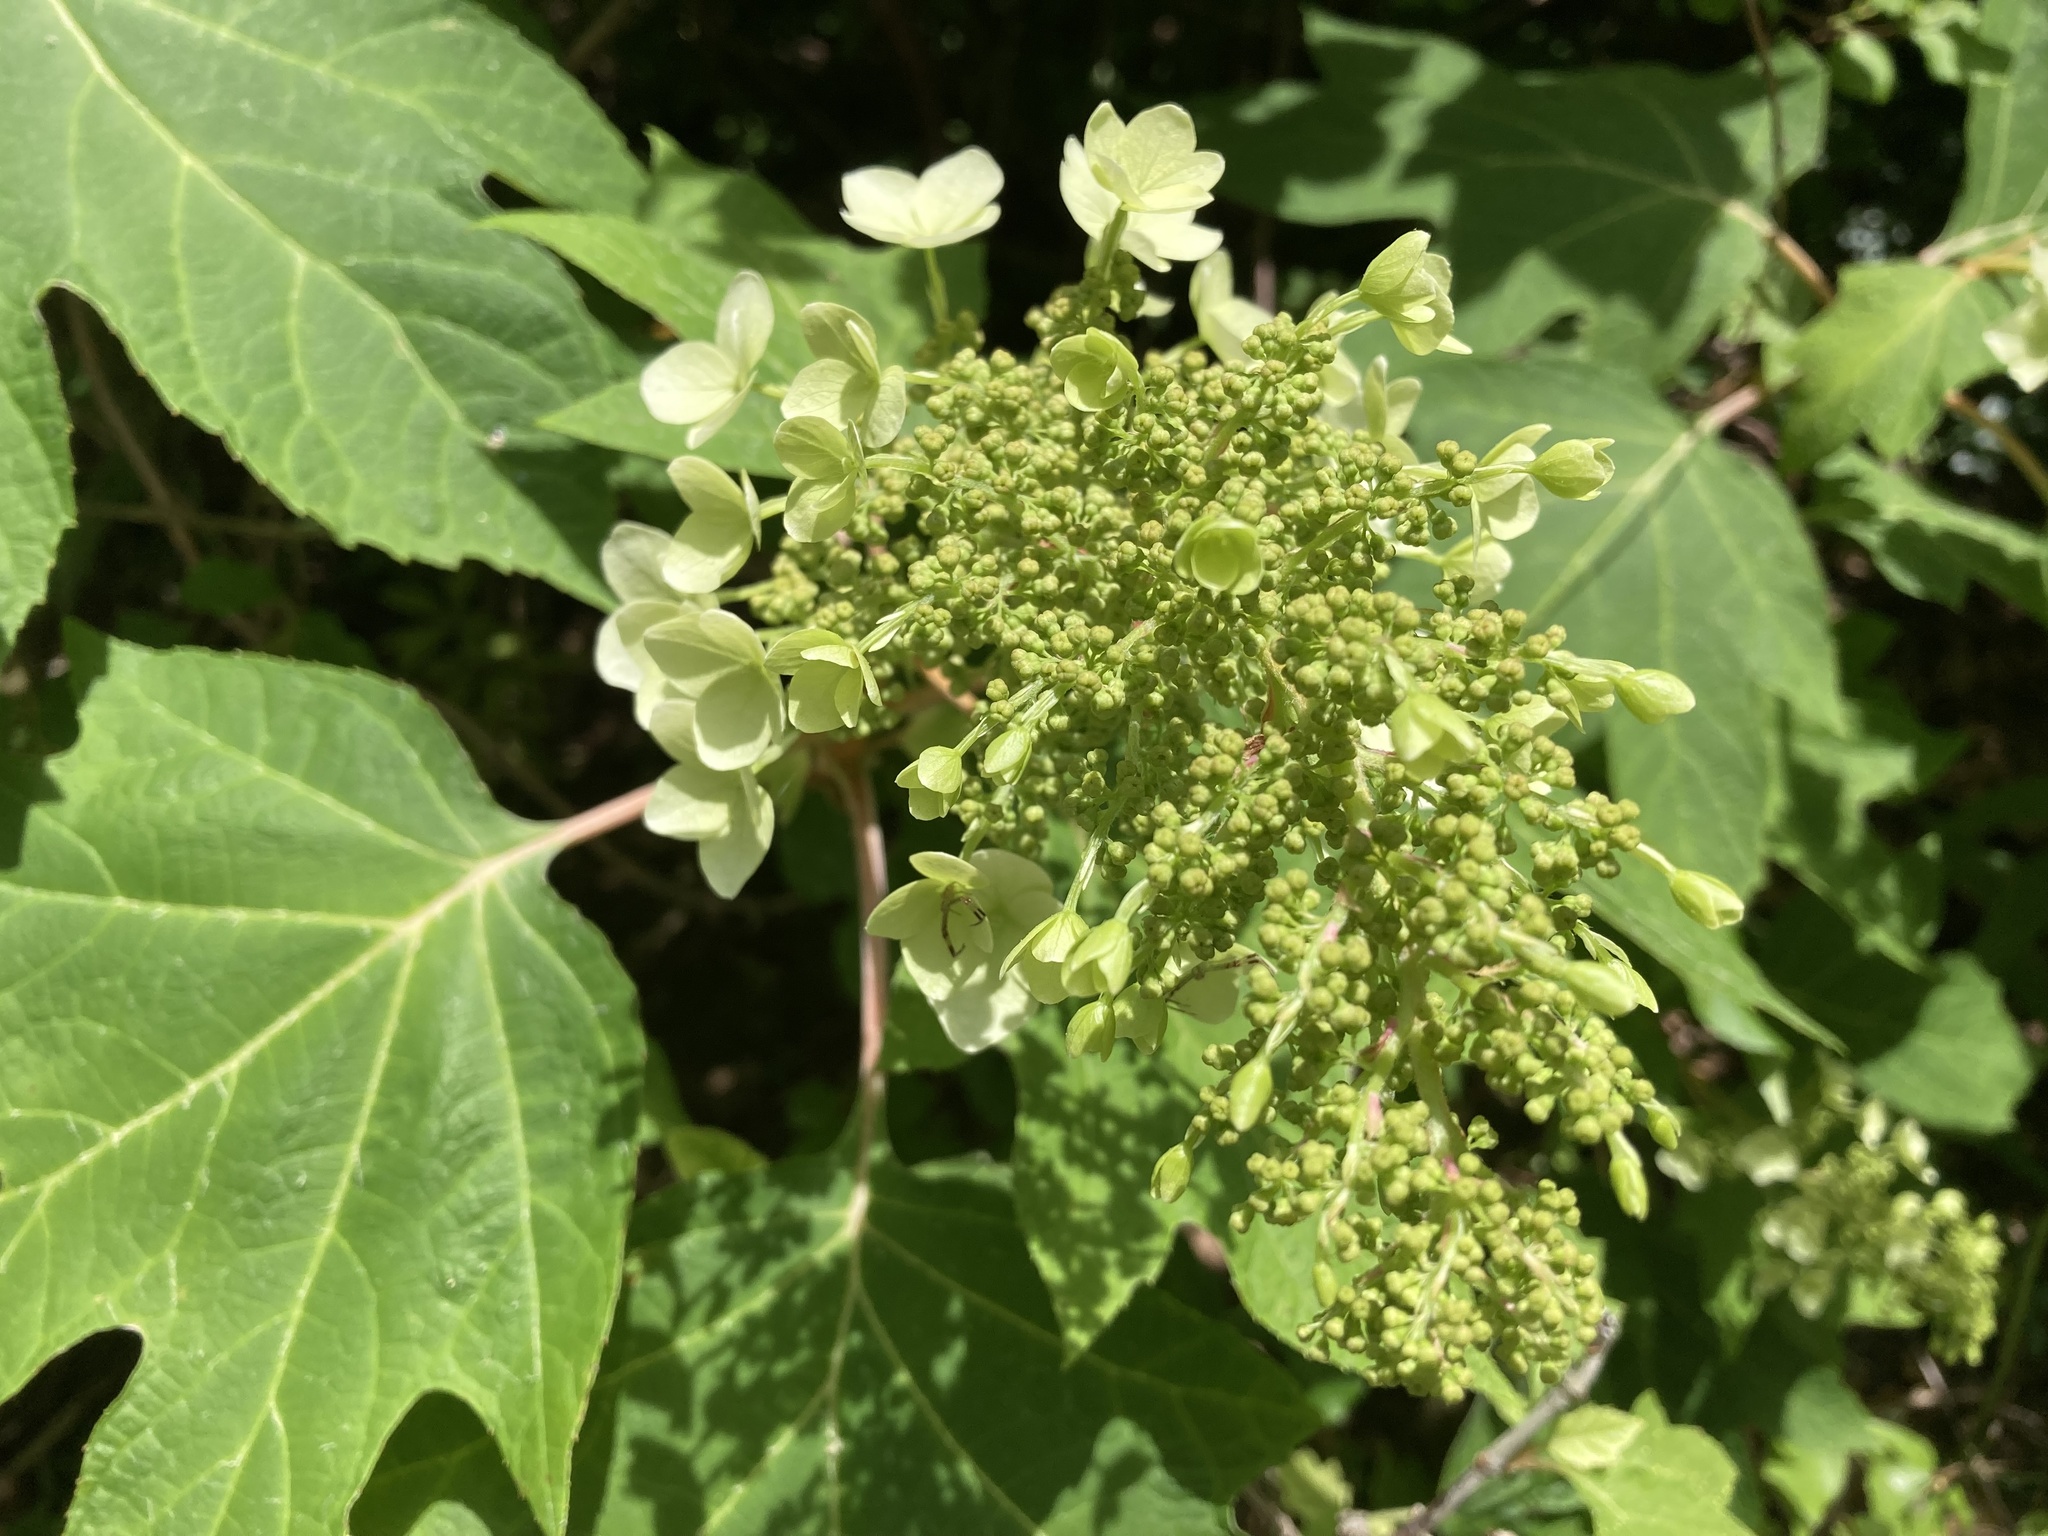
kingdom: Plantae
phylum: Tracheophyta
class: Magnoliopsida
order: Cornales
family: Hydrangeaceae
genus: Hydrangea
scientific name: Hydrangea quercifolia
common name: Oak-leaf hydrangea
